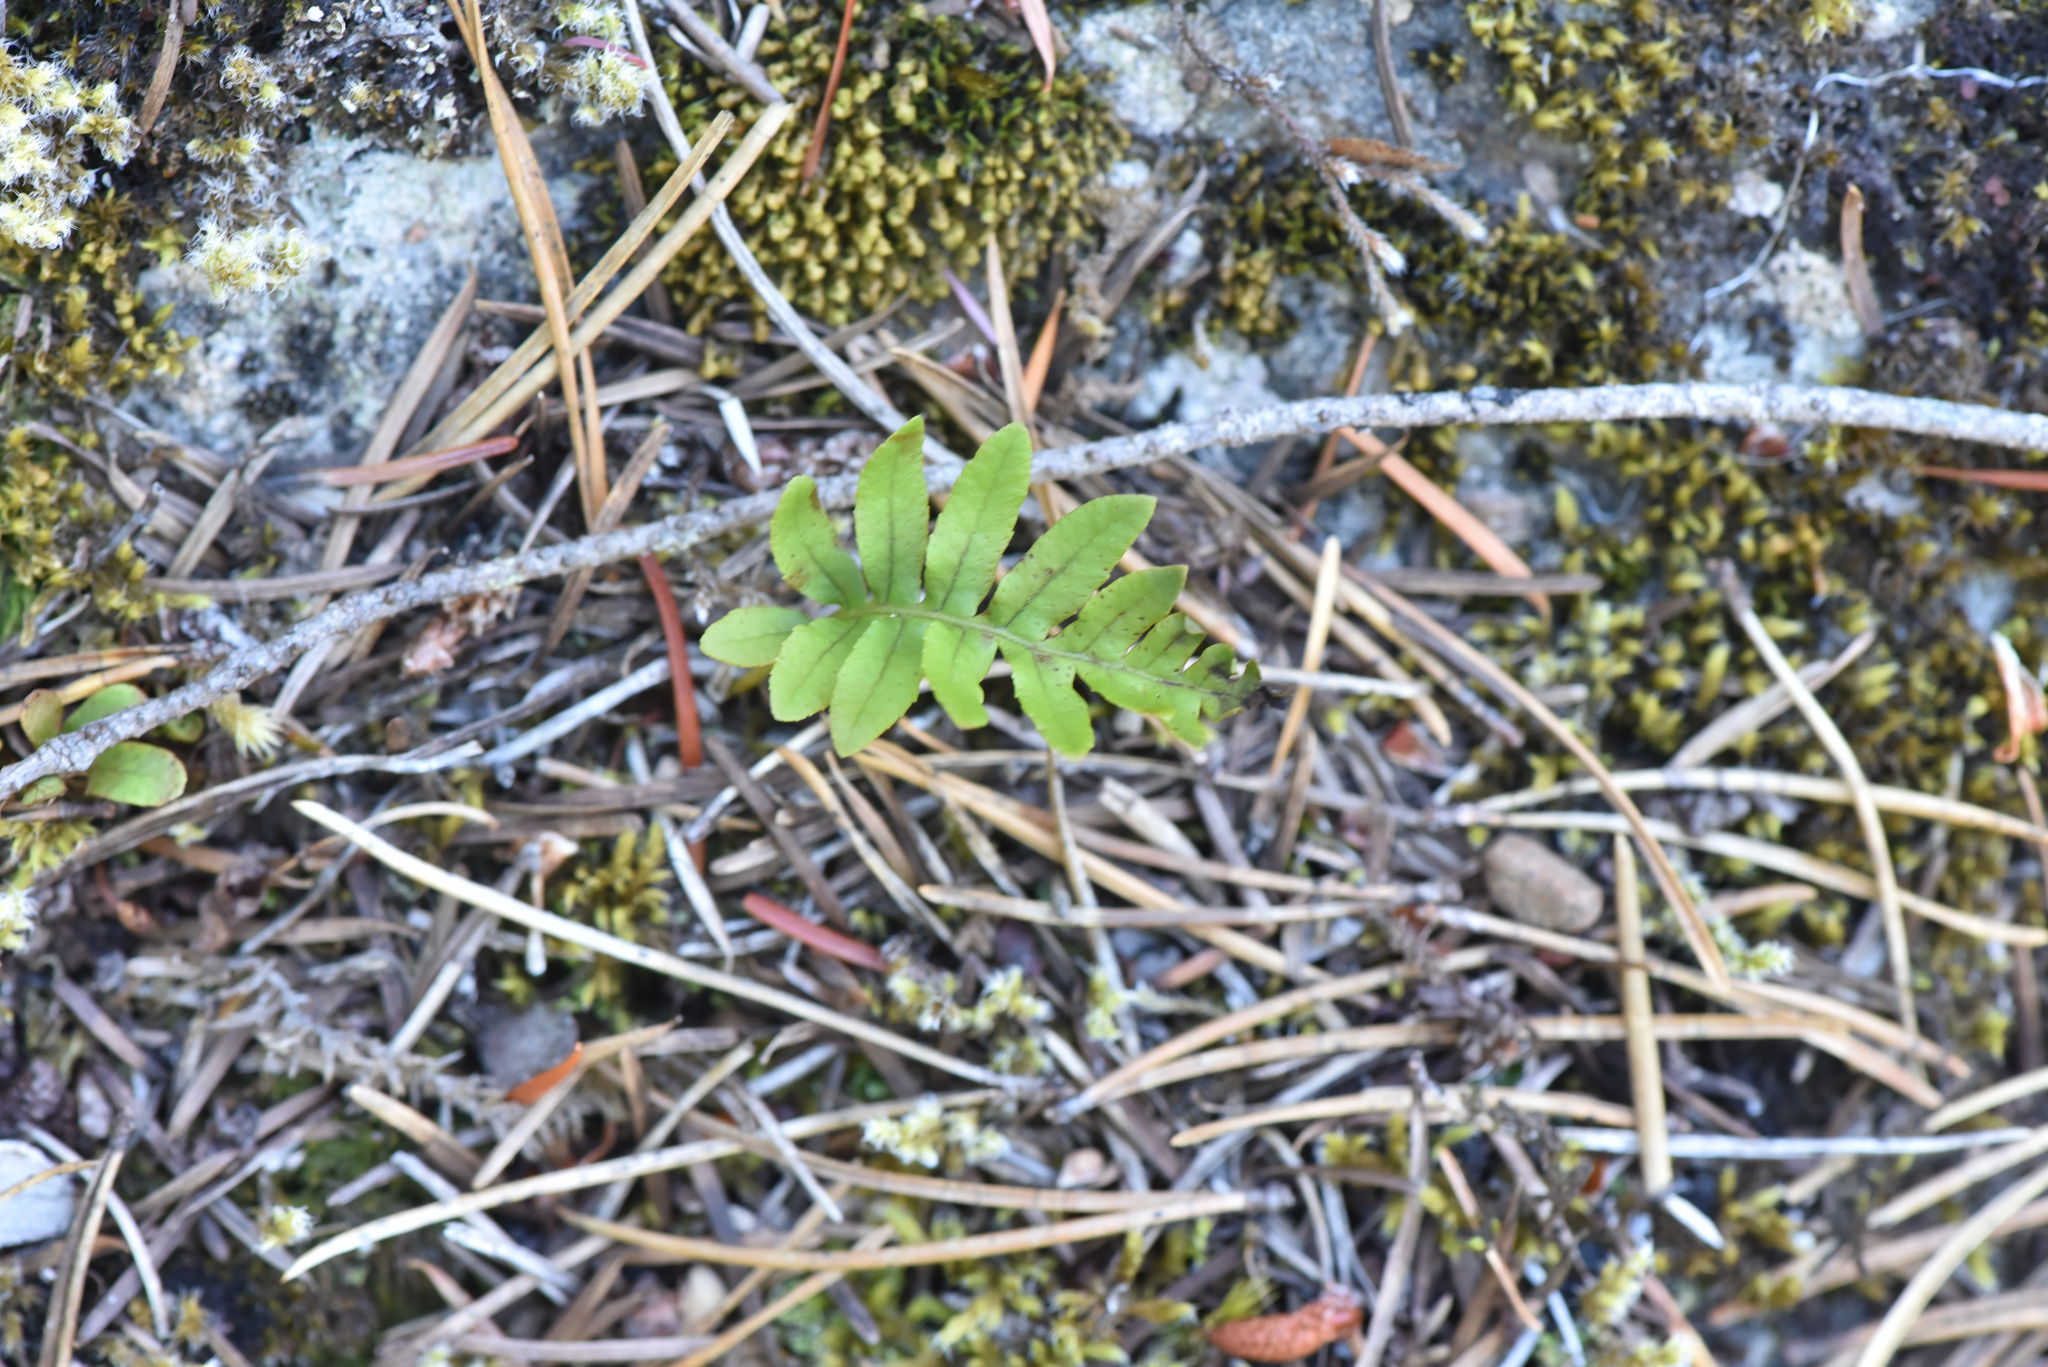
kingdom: Plantae
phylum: Tracheophyta
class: Polypodiopsida
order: Polypodiales
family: Polypodiaceae
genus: Polypodium
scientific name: Polypodium glycyrrhiza
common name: Licorice fern
